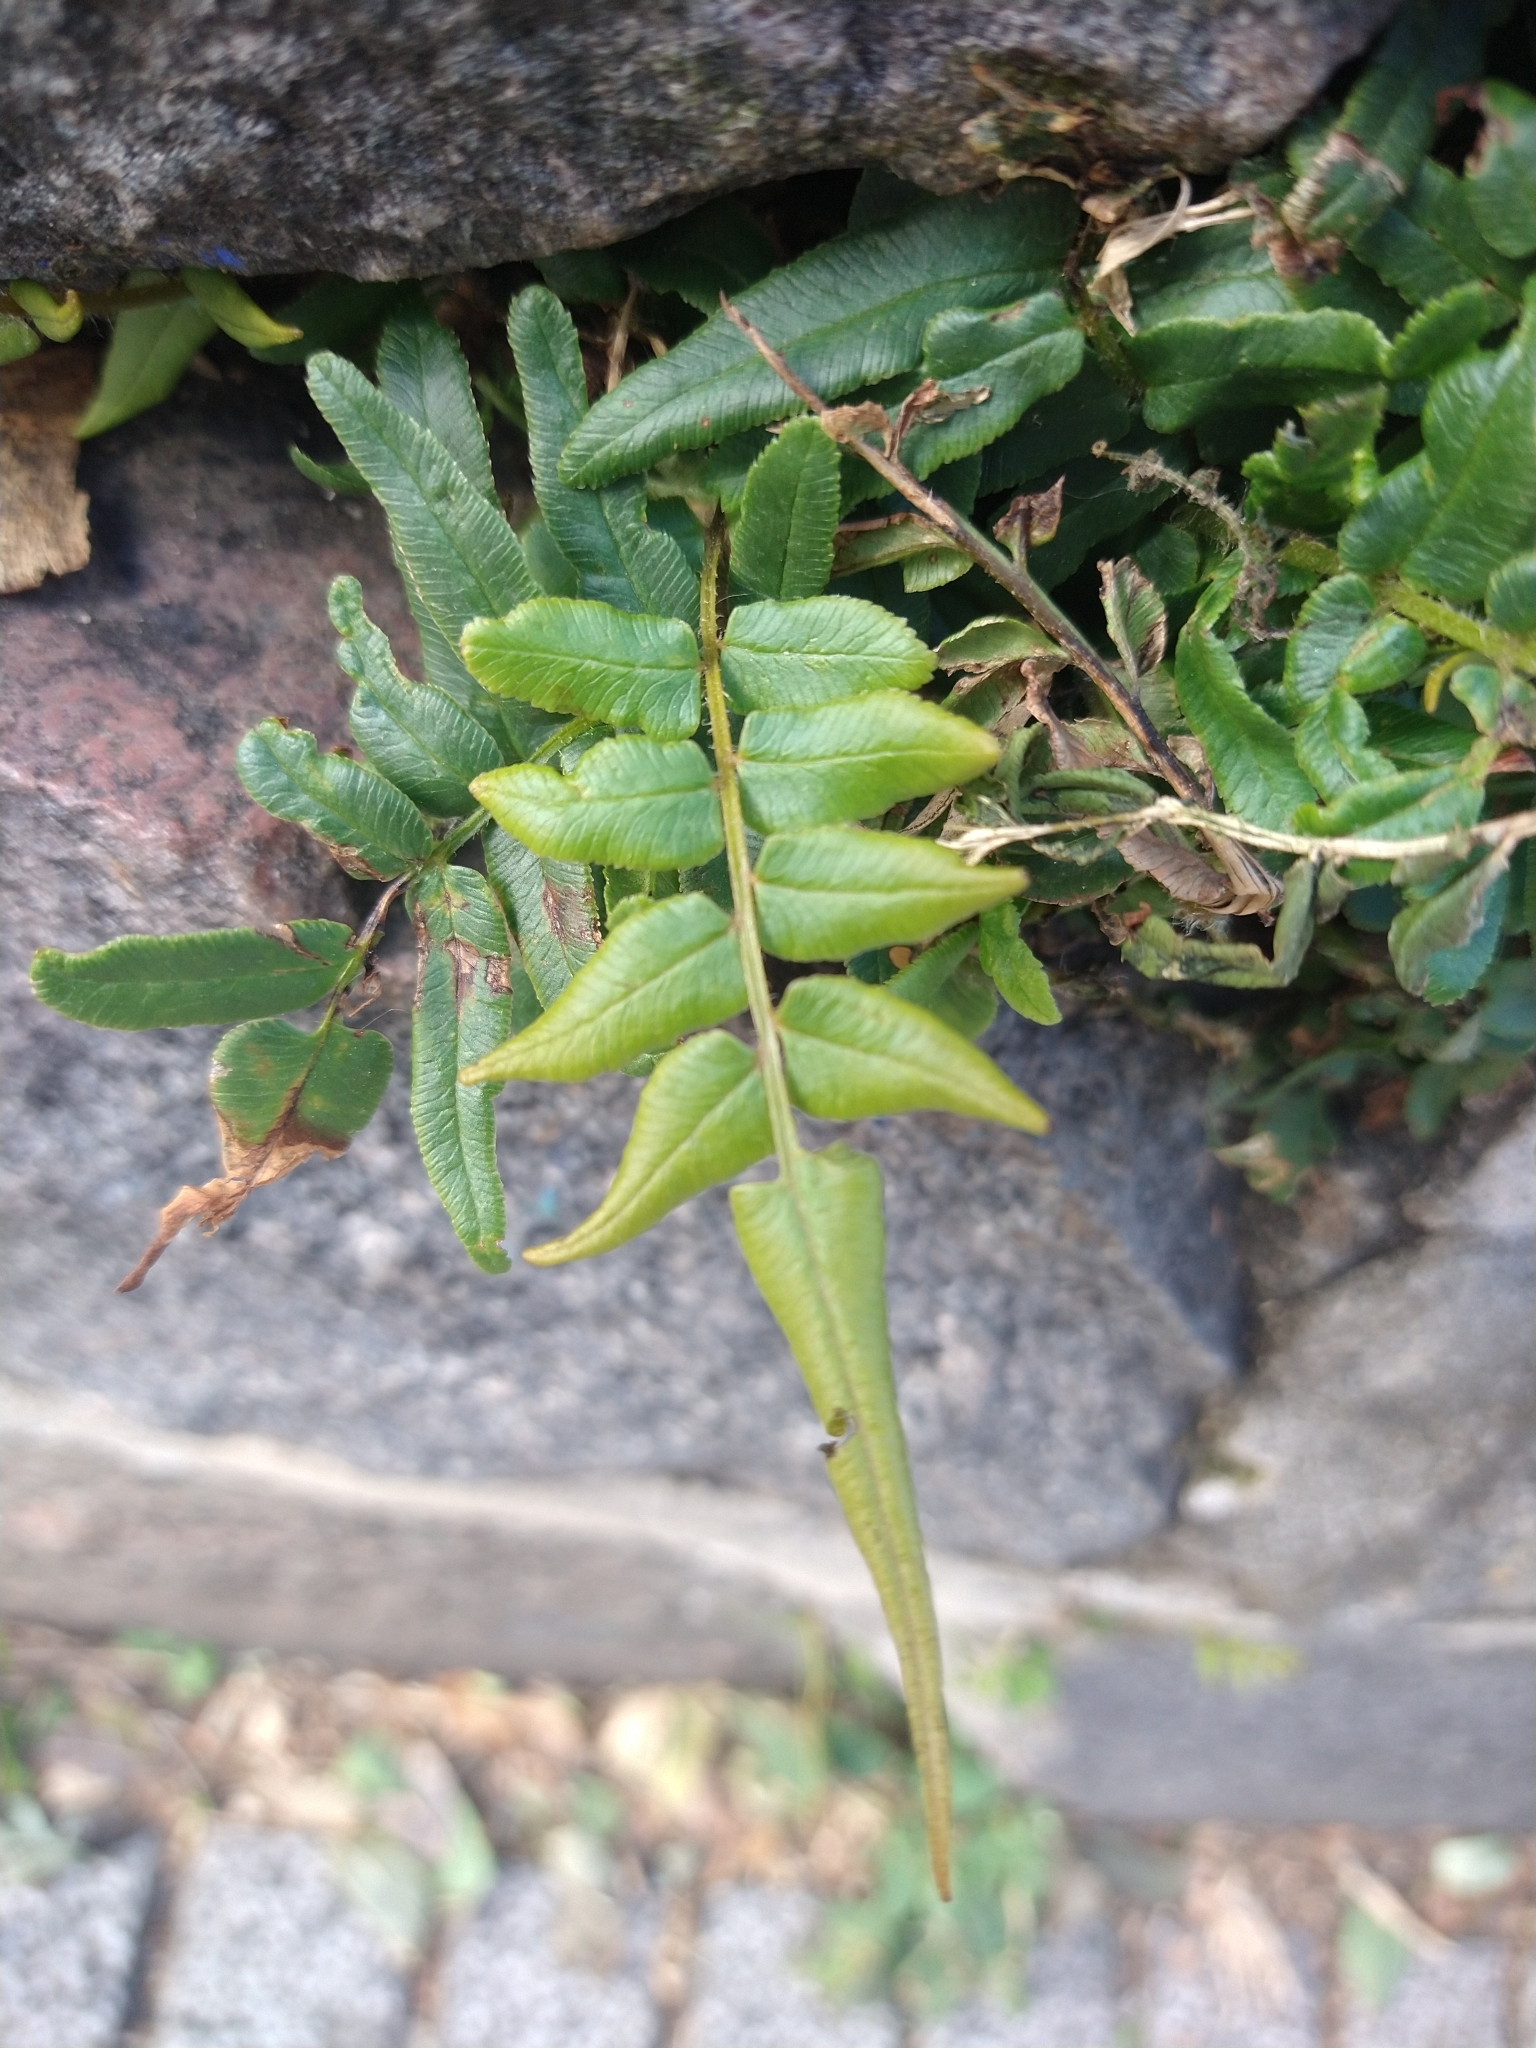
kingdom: Plantae
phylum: Tracheophyta
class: Polypodiopsida
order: Polypodiales
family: Pteridaceae
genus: Pteris
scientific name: Pteris vittata
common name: Ladder brake
